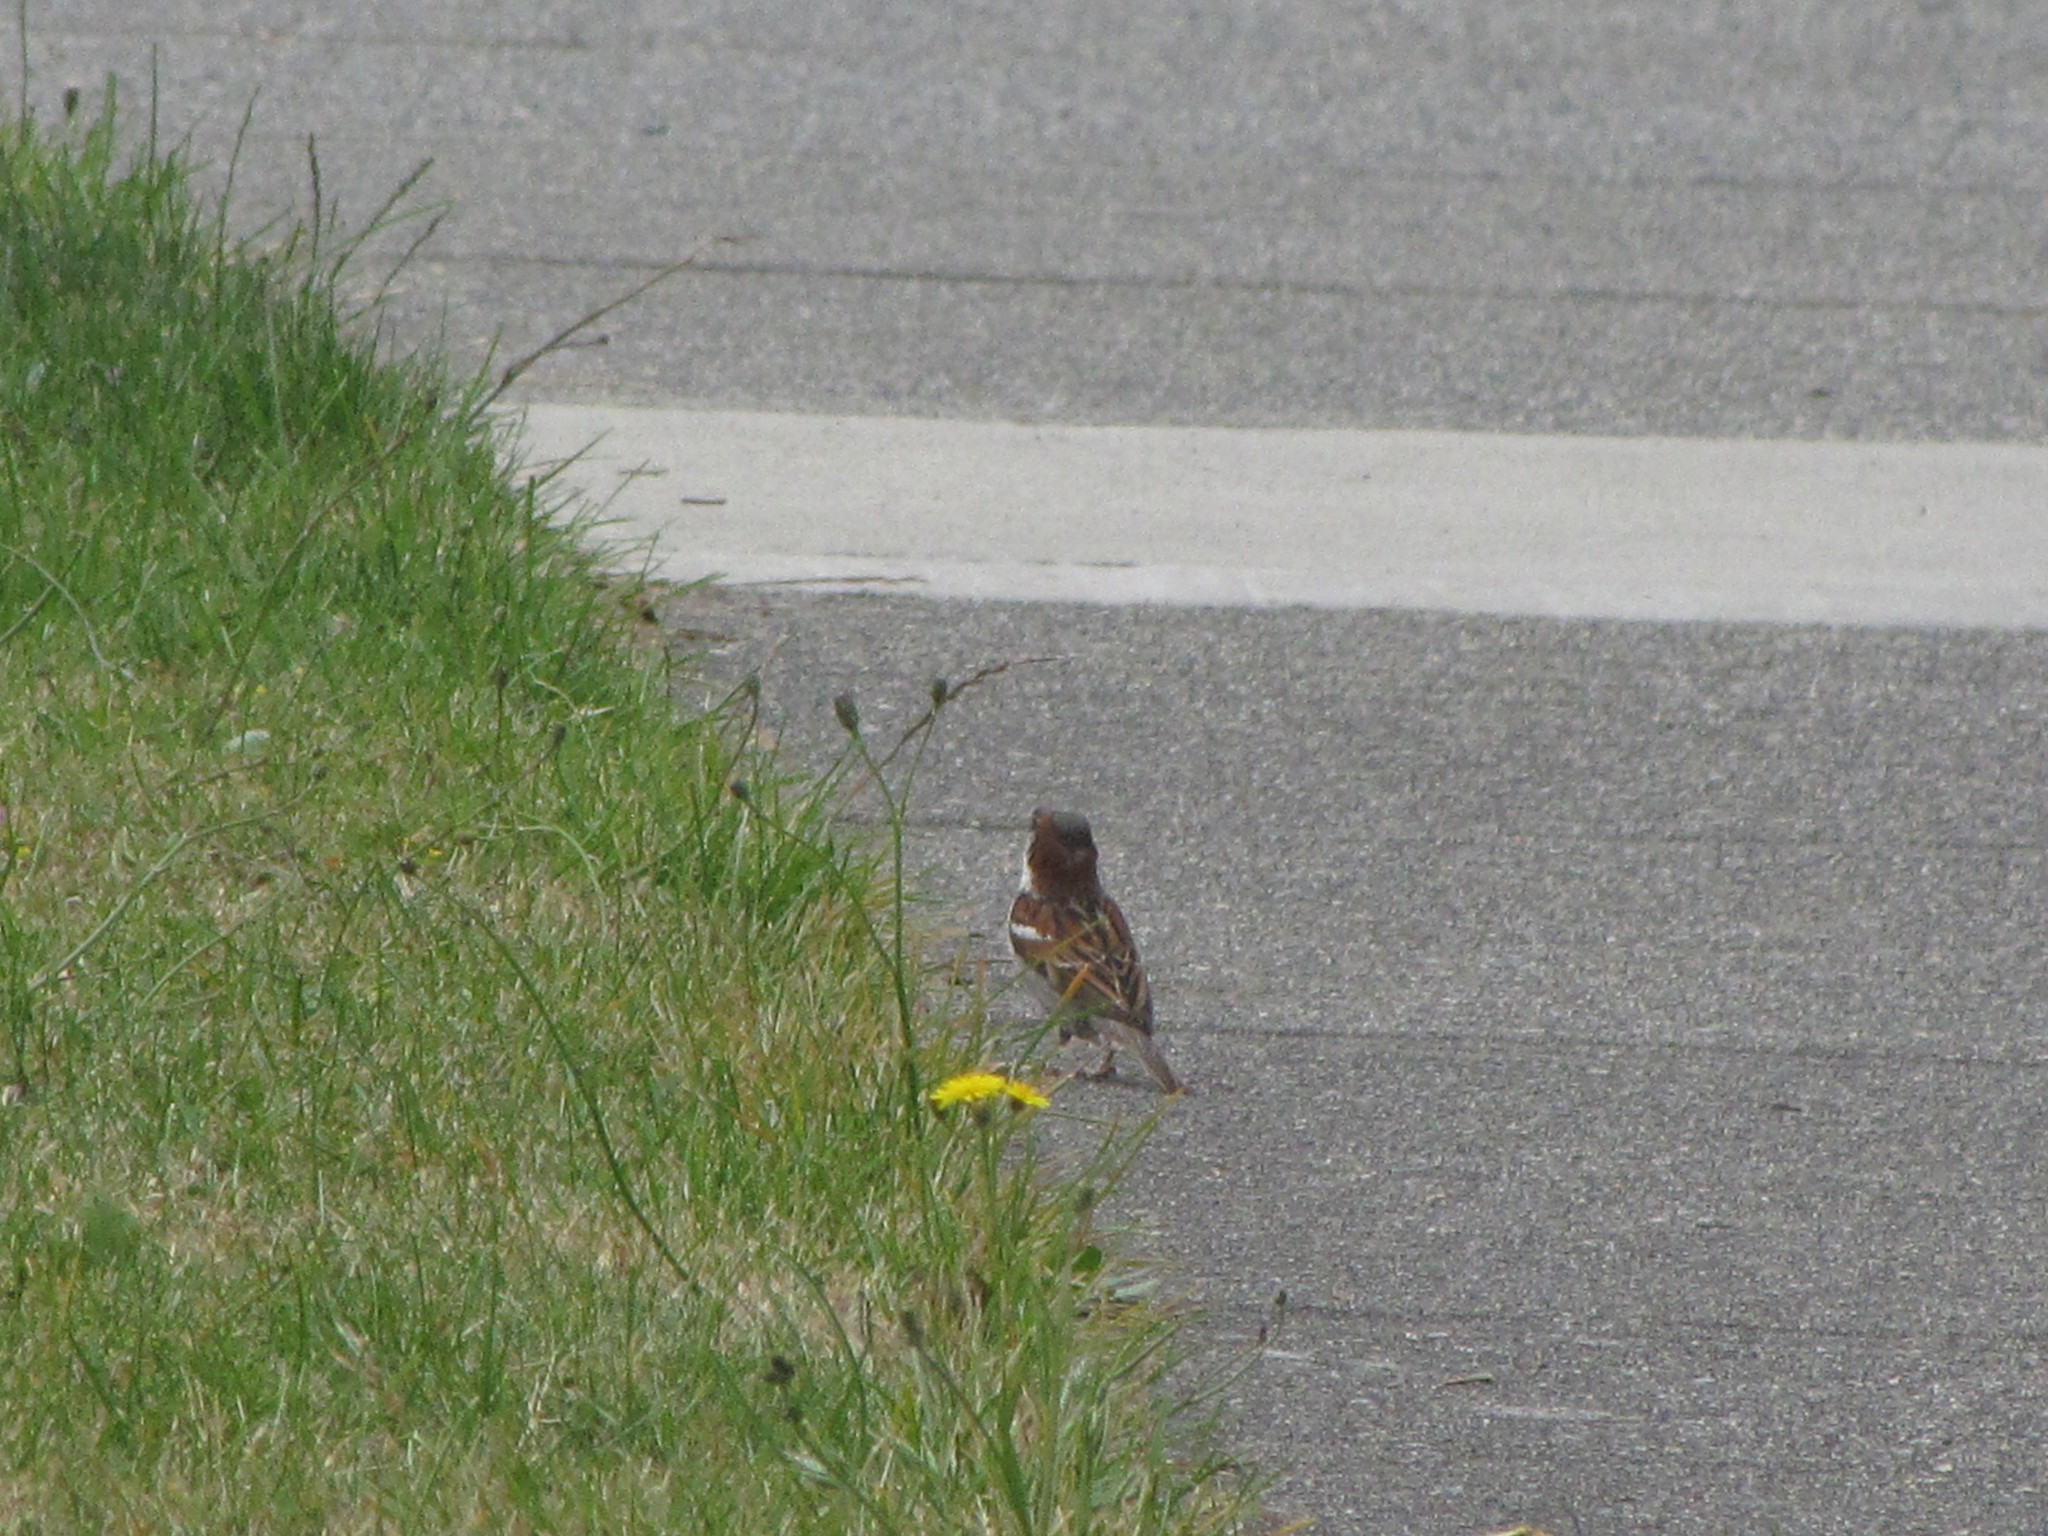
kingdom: Animalia
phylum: Chordata
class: Aves
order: Passeriformes
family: Passeridae
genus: Passer
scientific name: Passer domesticus
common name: House sparrow
